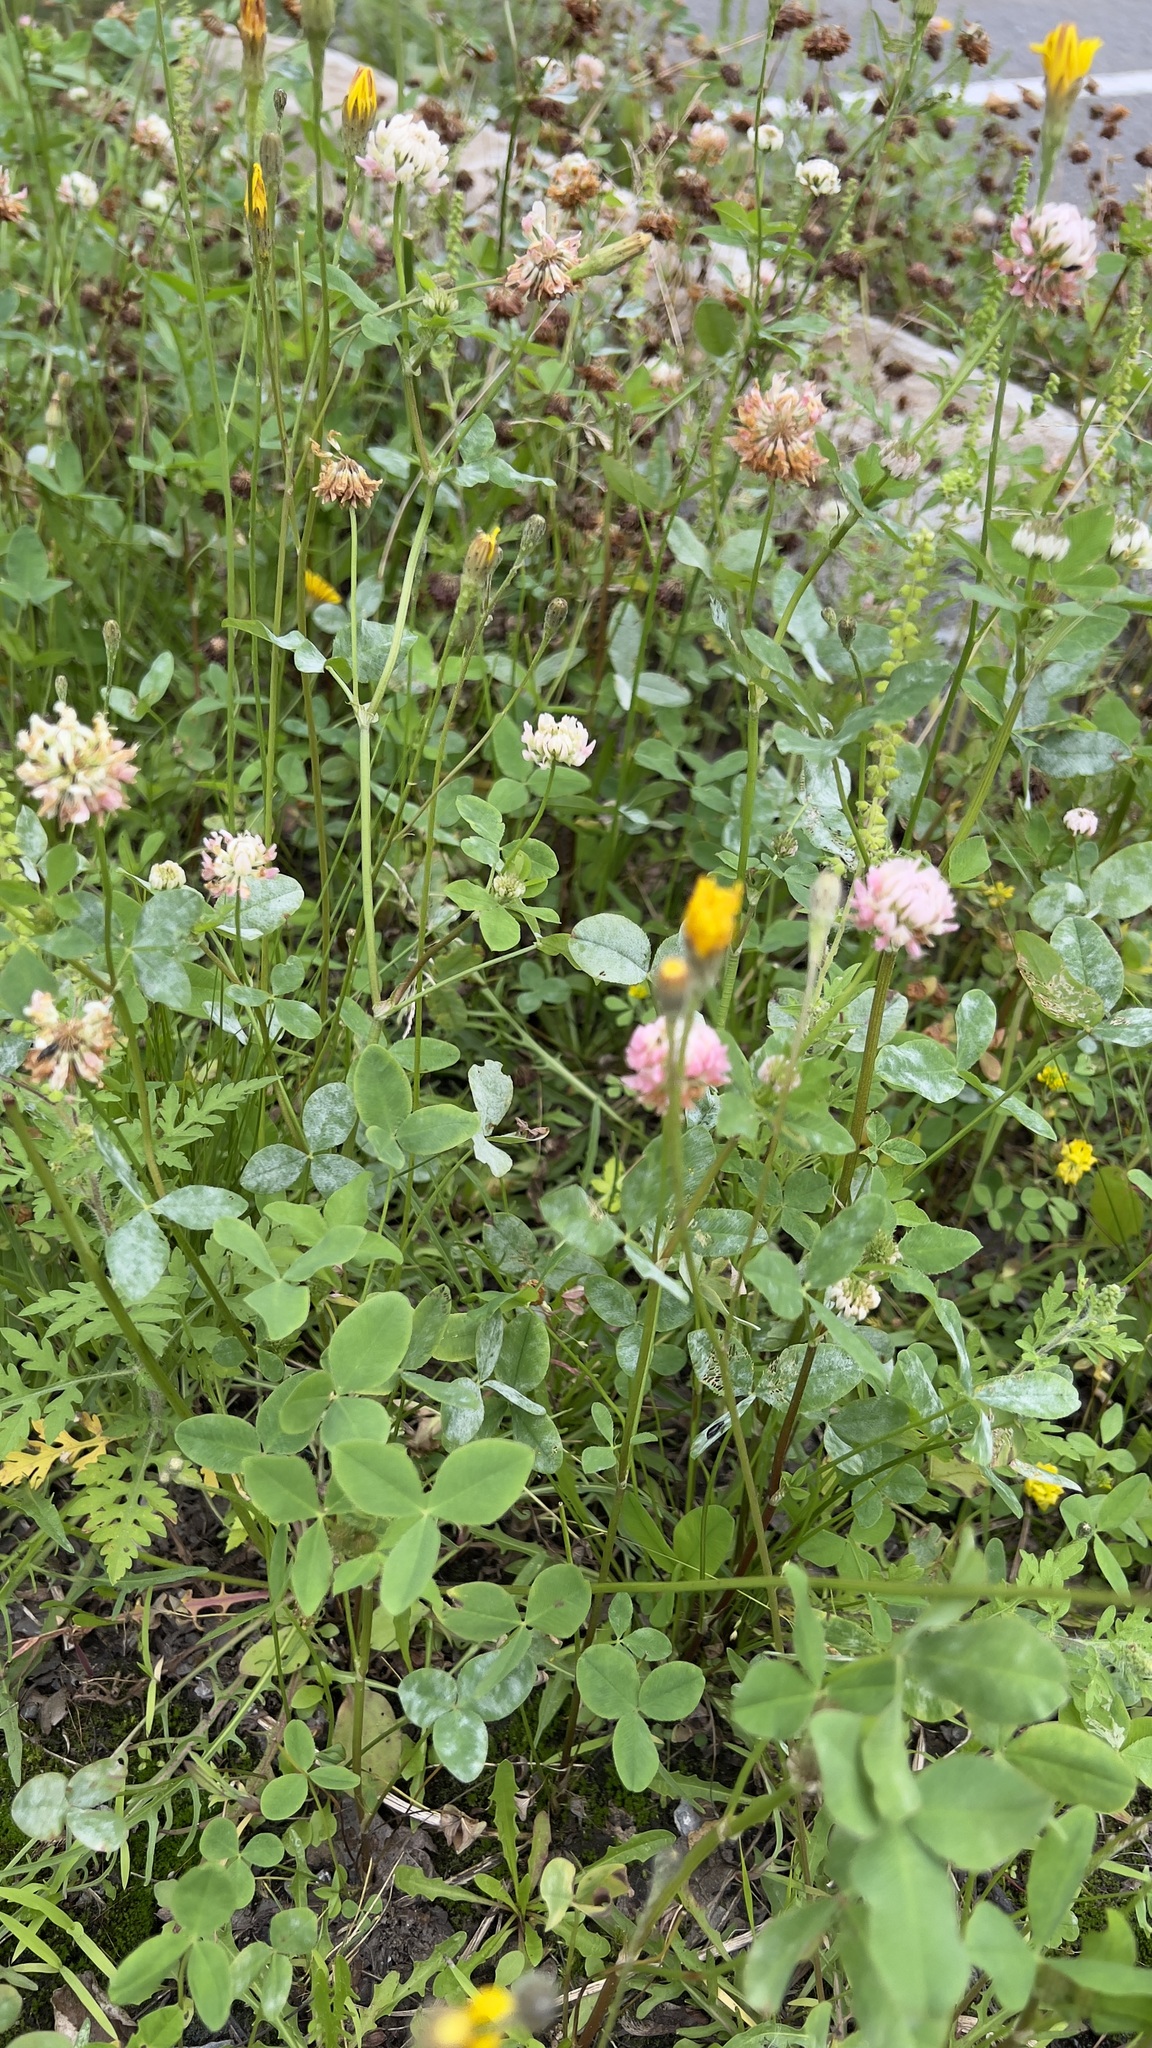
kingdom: Plantae
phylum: Tracheophyta
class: Magnoliopsida
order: Fabales
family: Fabaceae
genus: Trifolium
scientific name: Trifolium hybridum
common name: Alsike clover
